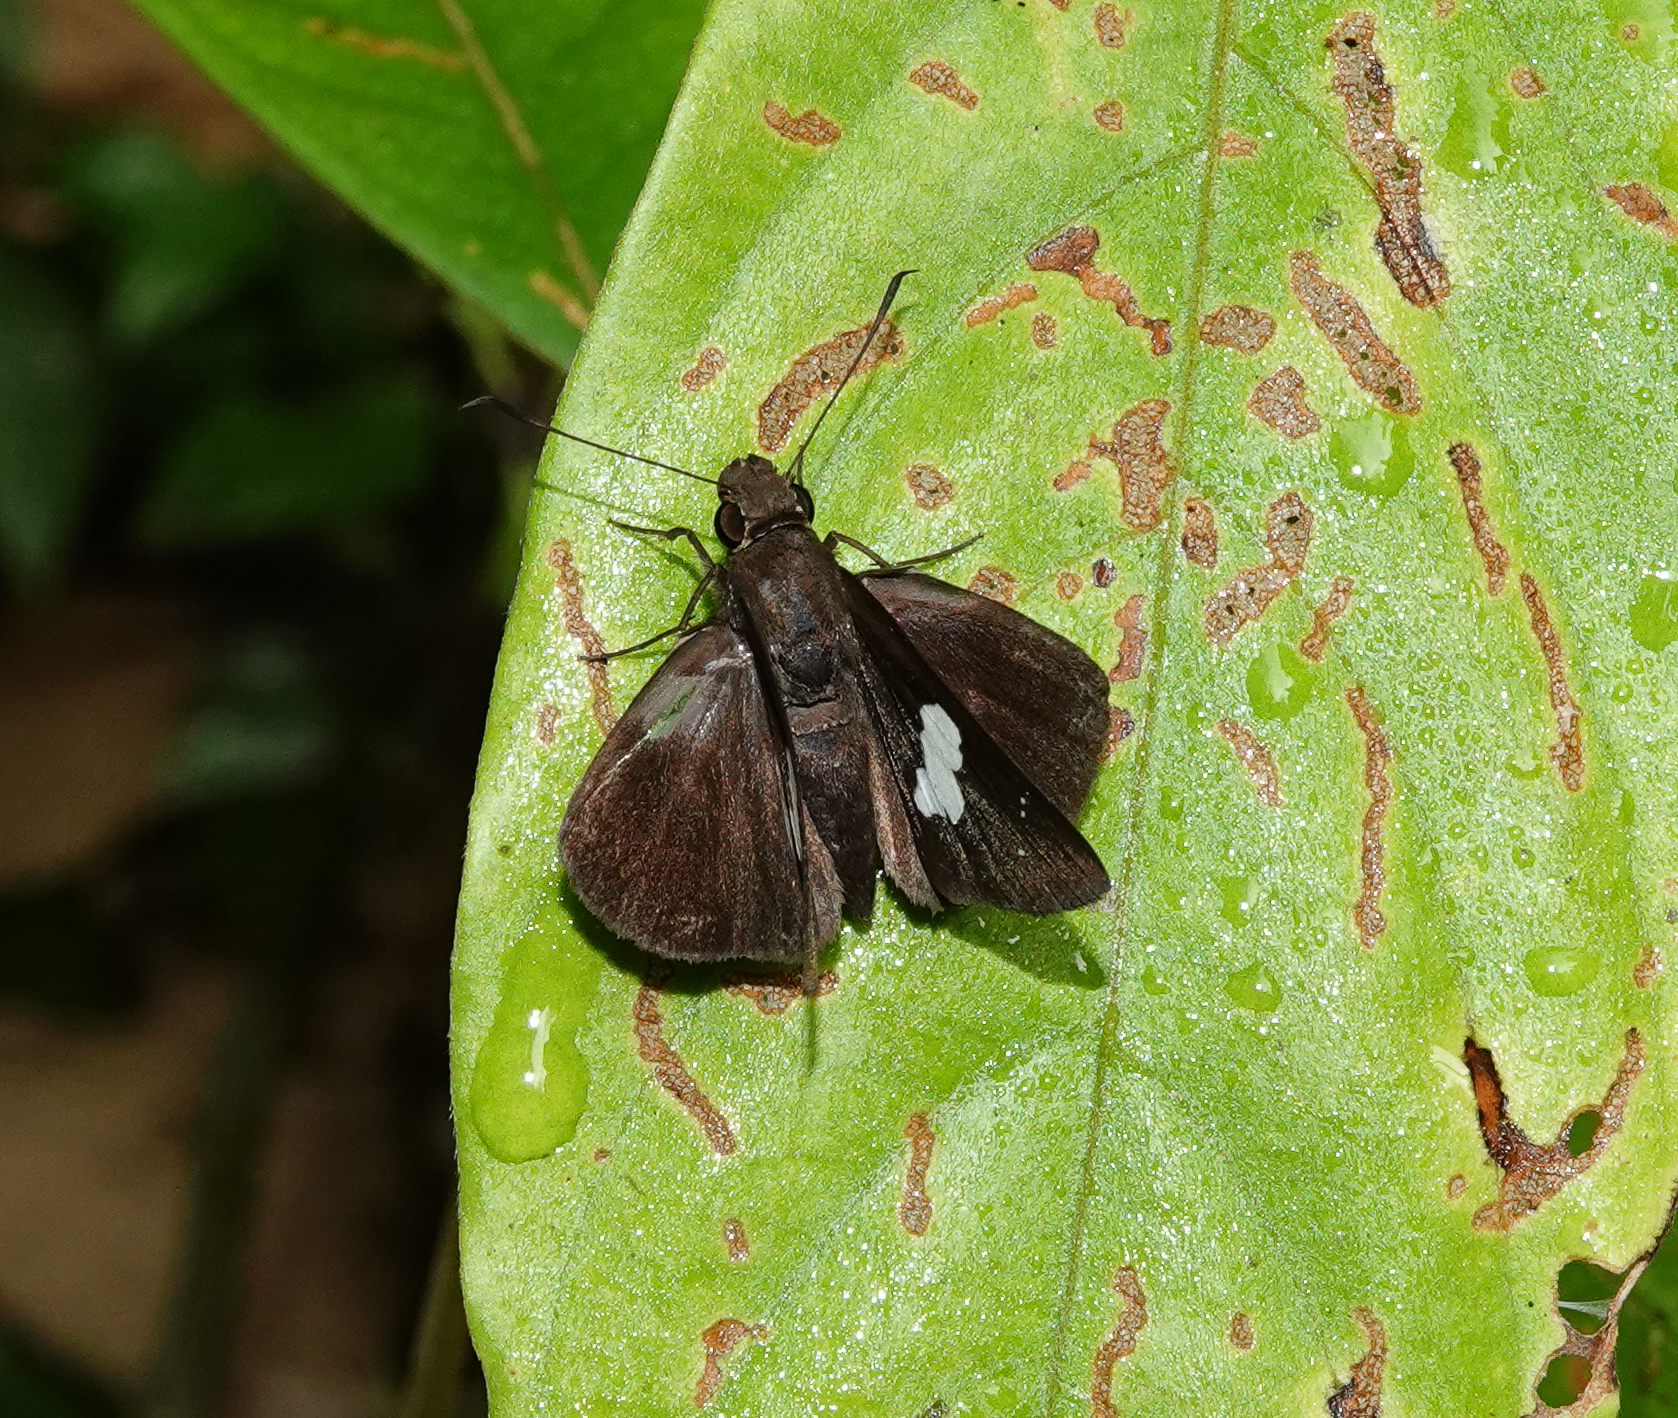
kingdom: Animalia
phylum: Arthropoda
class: Insecta
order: Lepidoptera
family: Hesperiidae
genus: Notocrypta
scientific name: Notocrypta curvifascia
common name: Restricted demon
